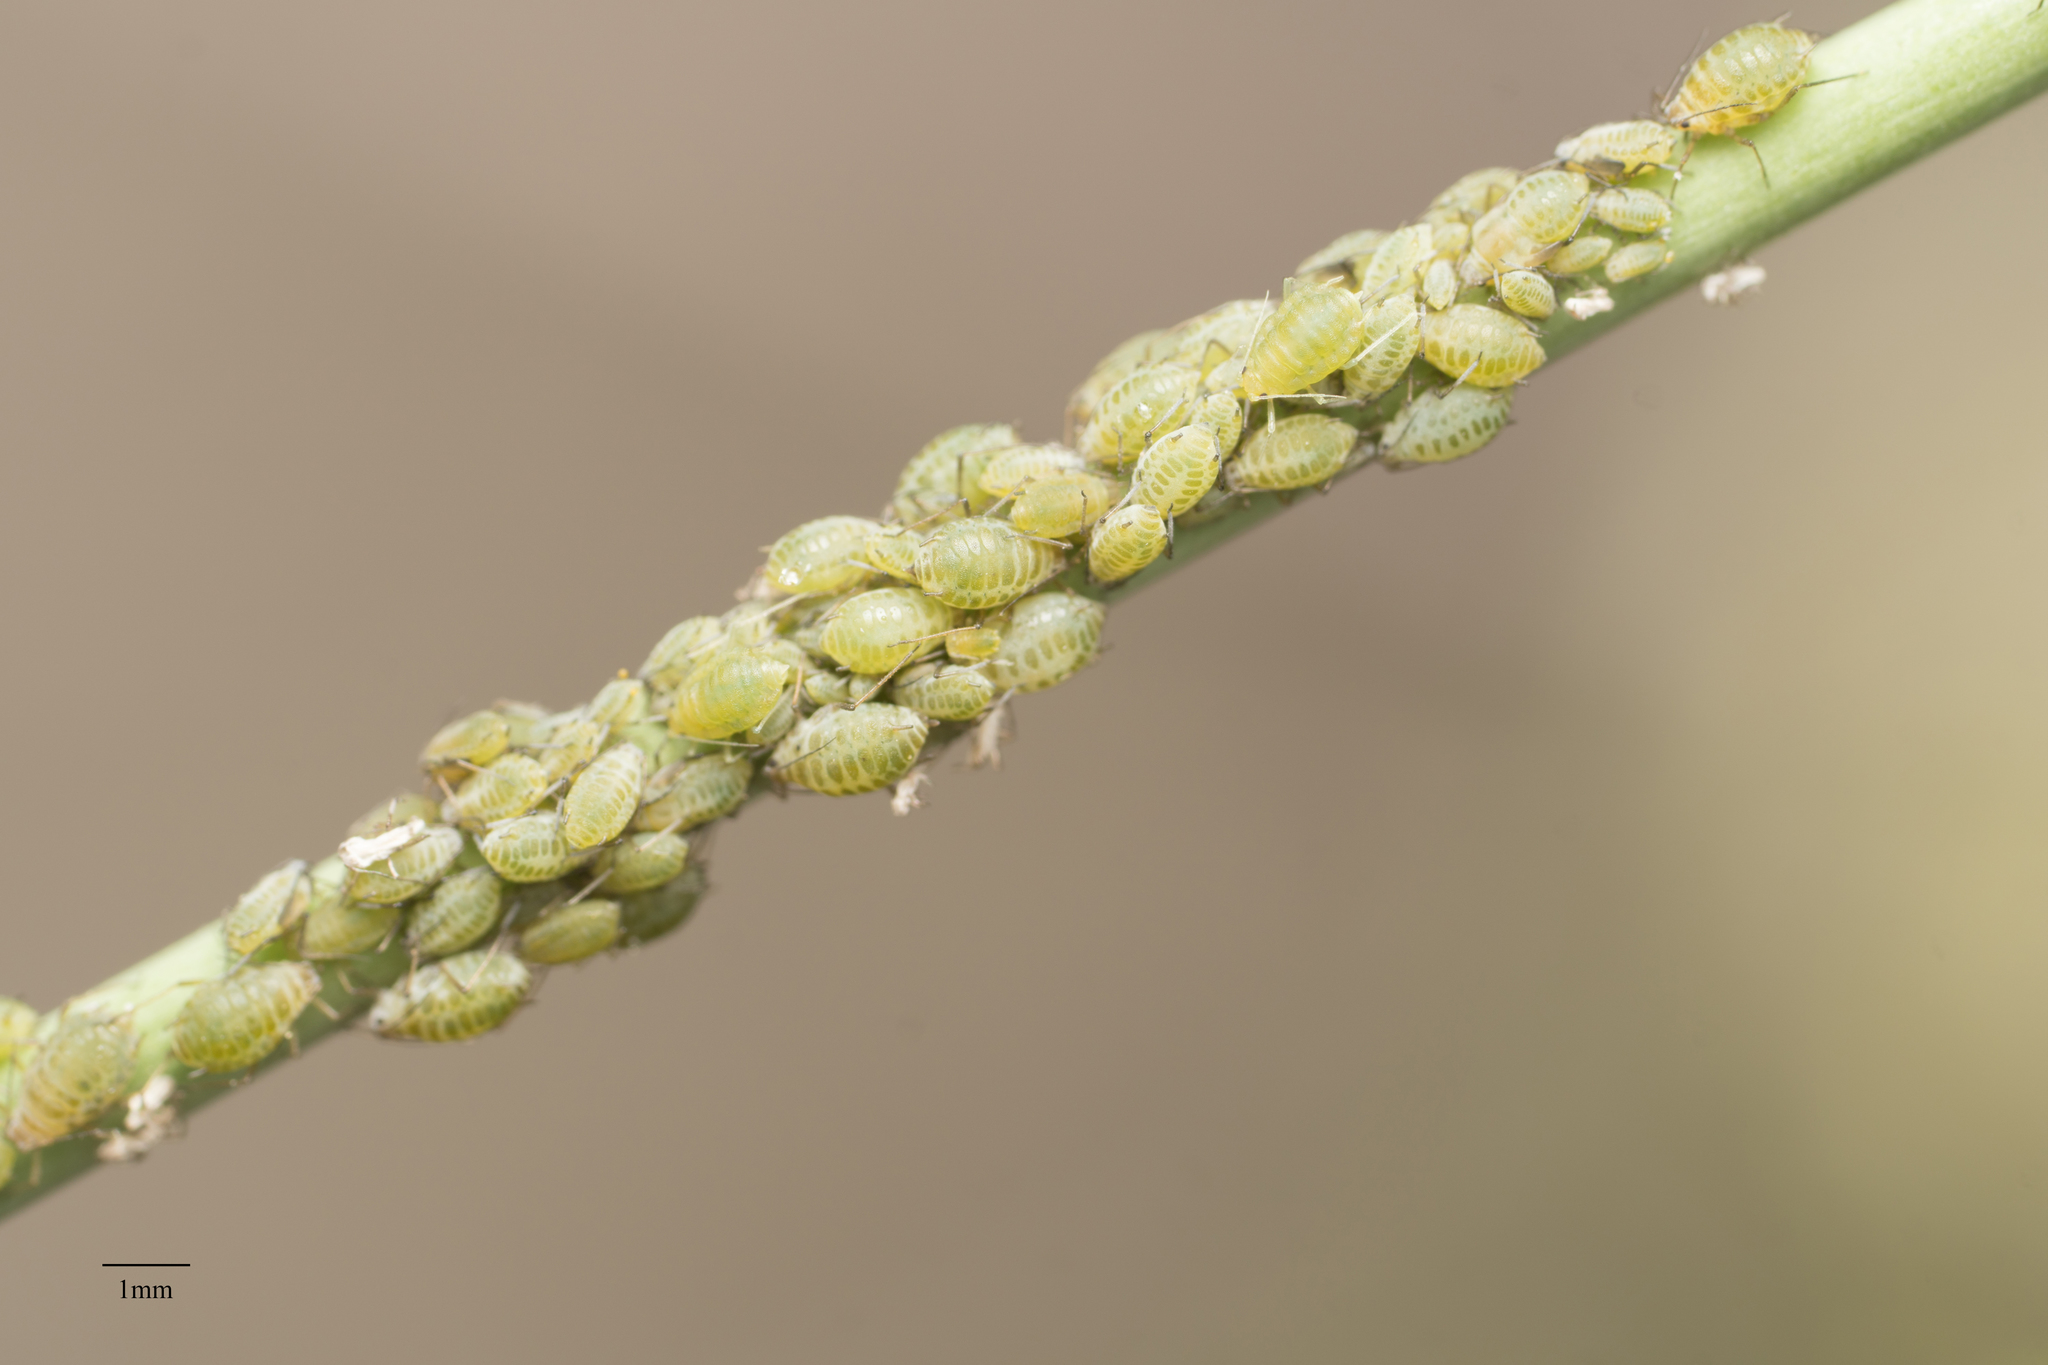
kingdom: Animalia
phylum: Arthropoda
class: Insecta
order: Hemiptera
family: Aphididae
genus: Lipaphis
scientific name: Lipaphis pseudobrassicae
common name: Turnip aphid
